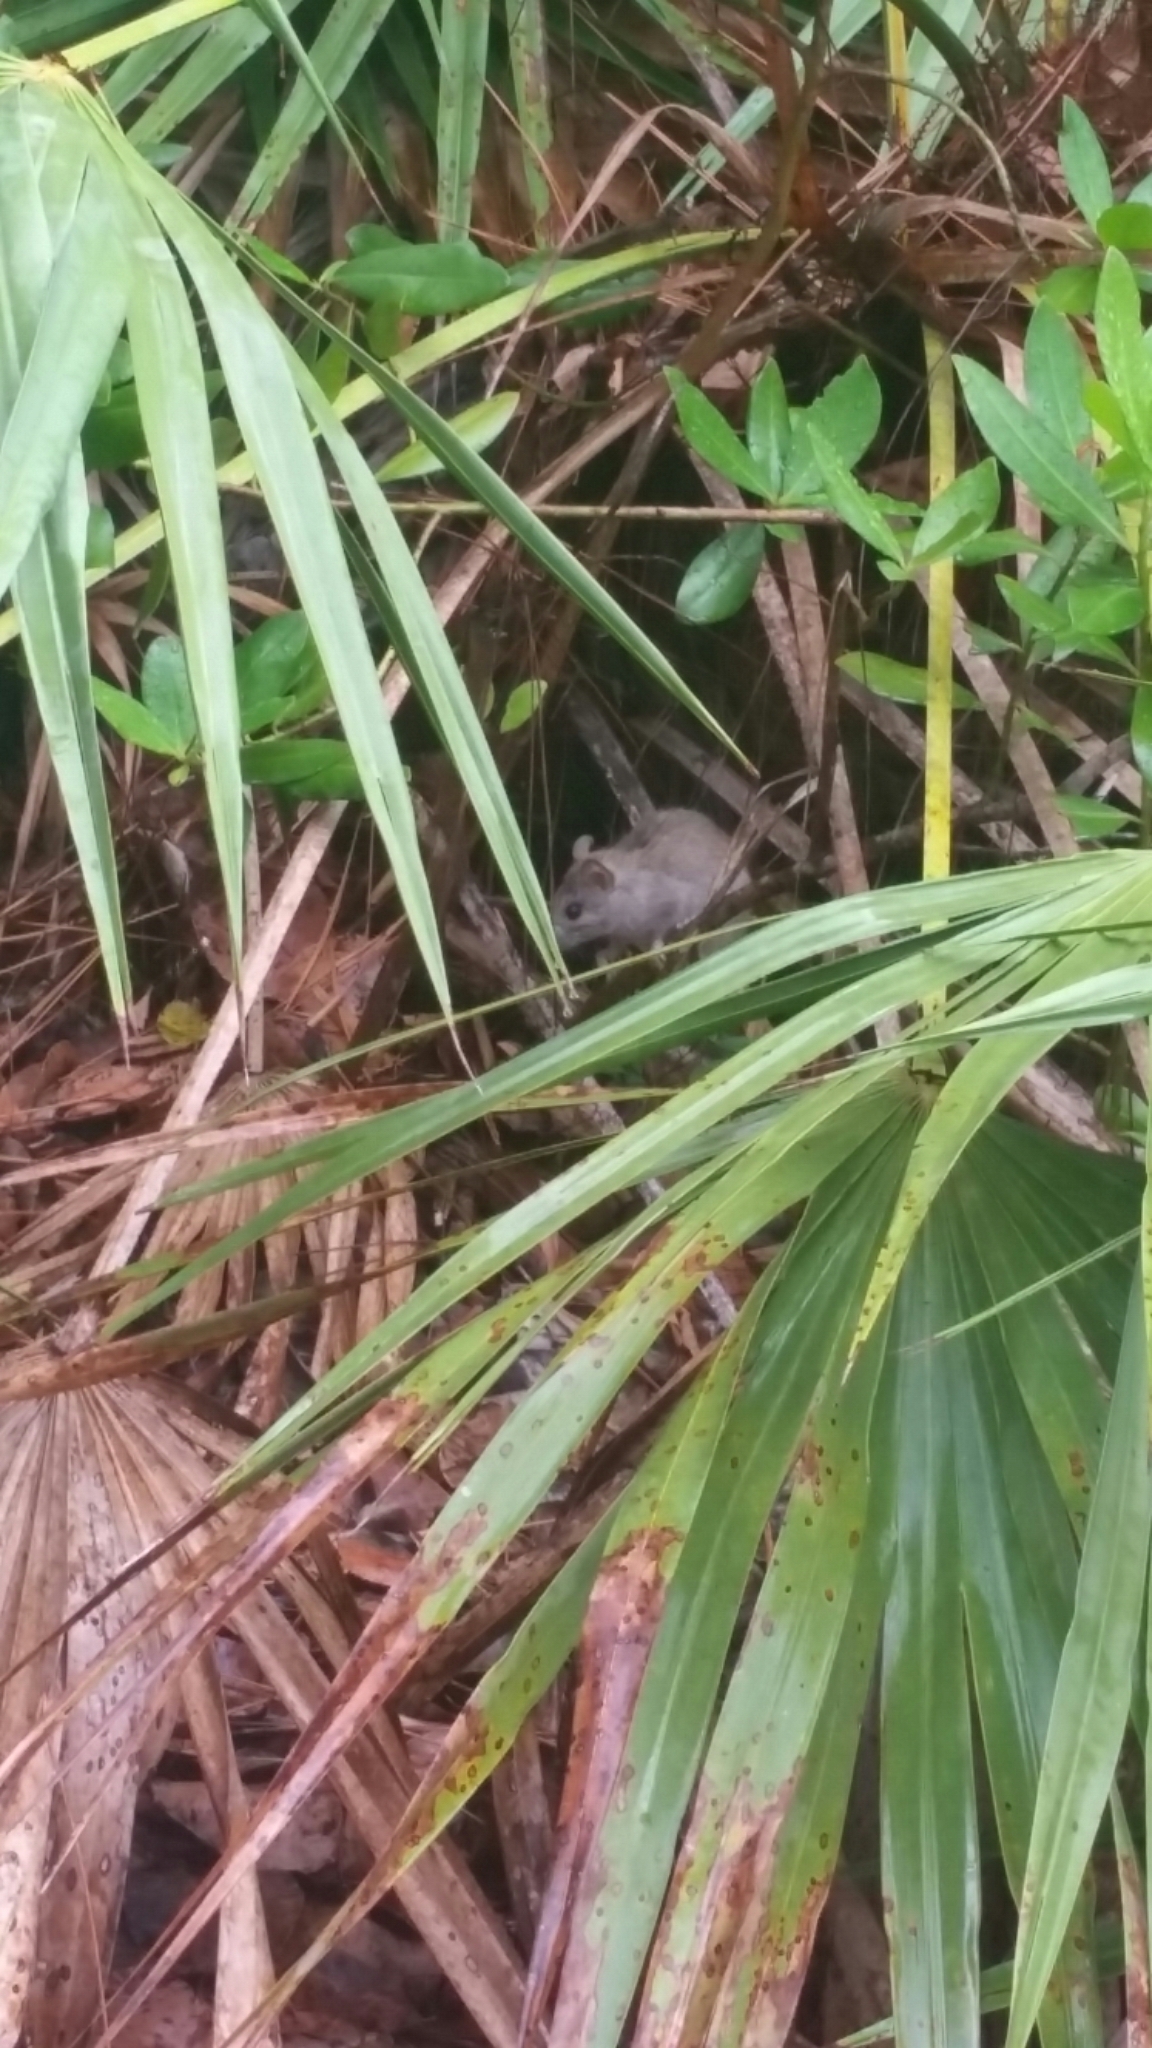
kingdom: Animalia
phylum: Chordata
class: Mammalia
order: Rodentia
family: Muridae
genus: Mus
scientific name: Mus musculus
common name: House mouse
